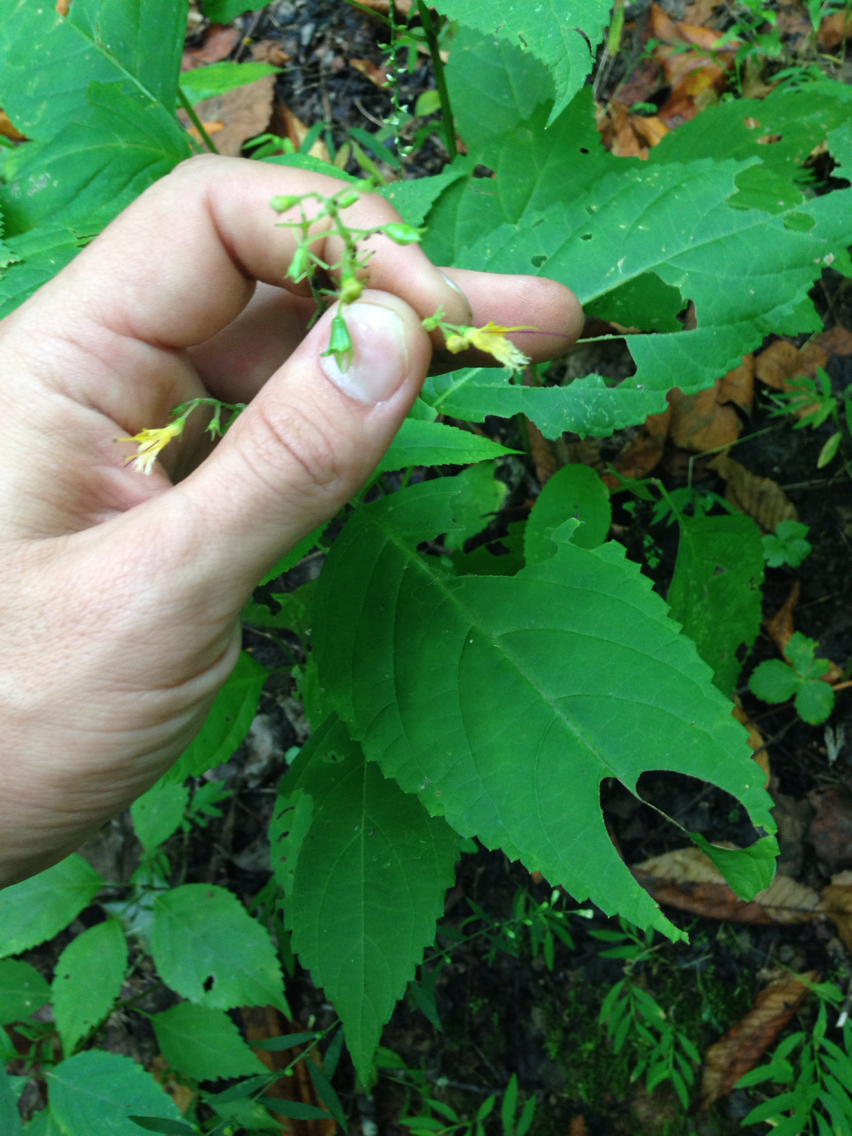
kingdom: Plantae
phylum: Tracheophyta
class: Magnoliopsida
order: Lamiales
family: Lamiaceae
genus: Collinsonia
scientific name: Collinsonia canadensis
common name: Northern horsebalm
